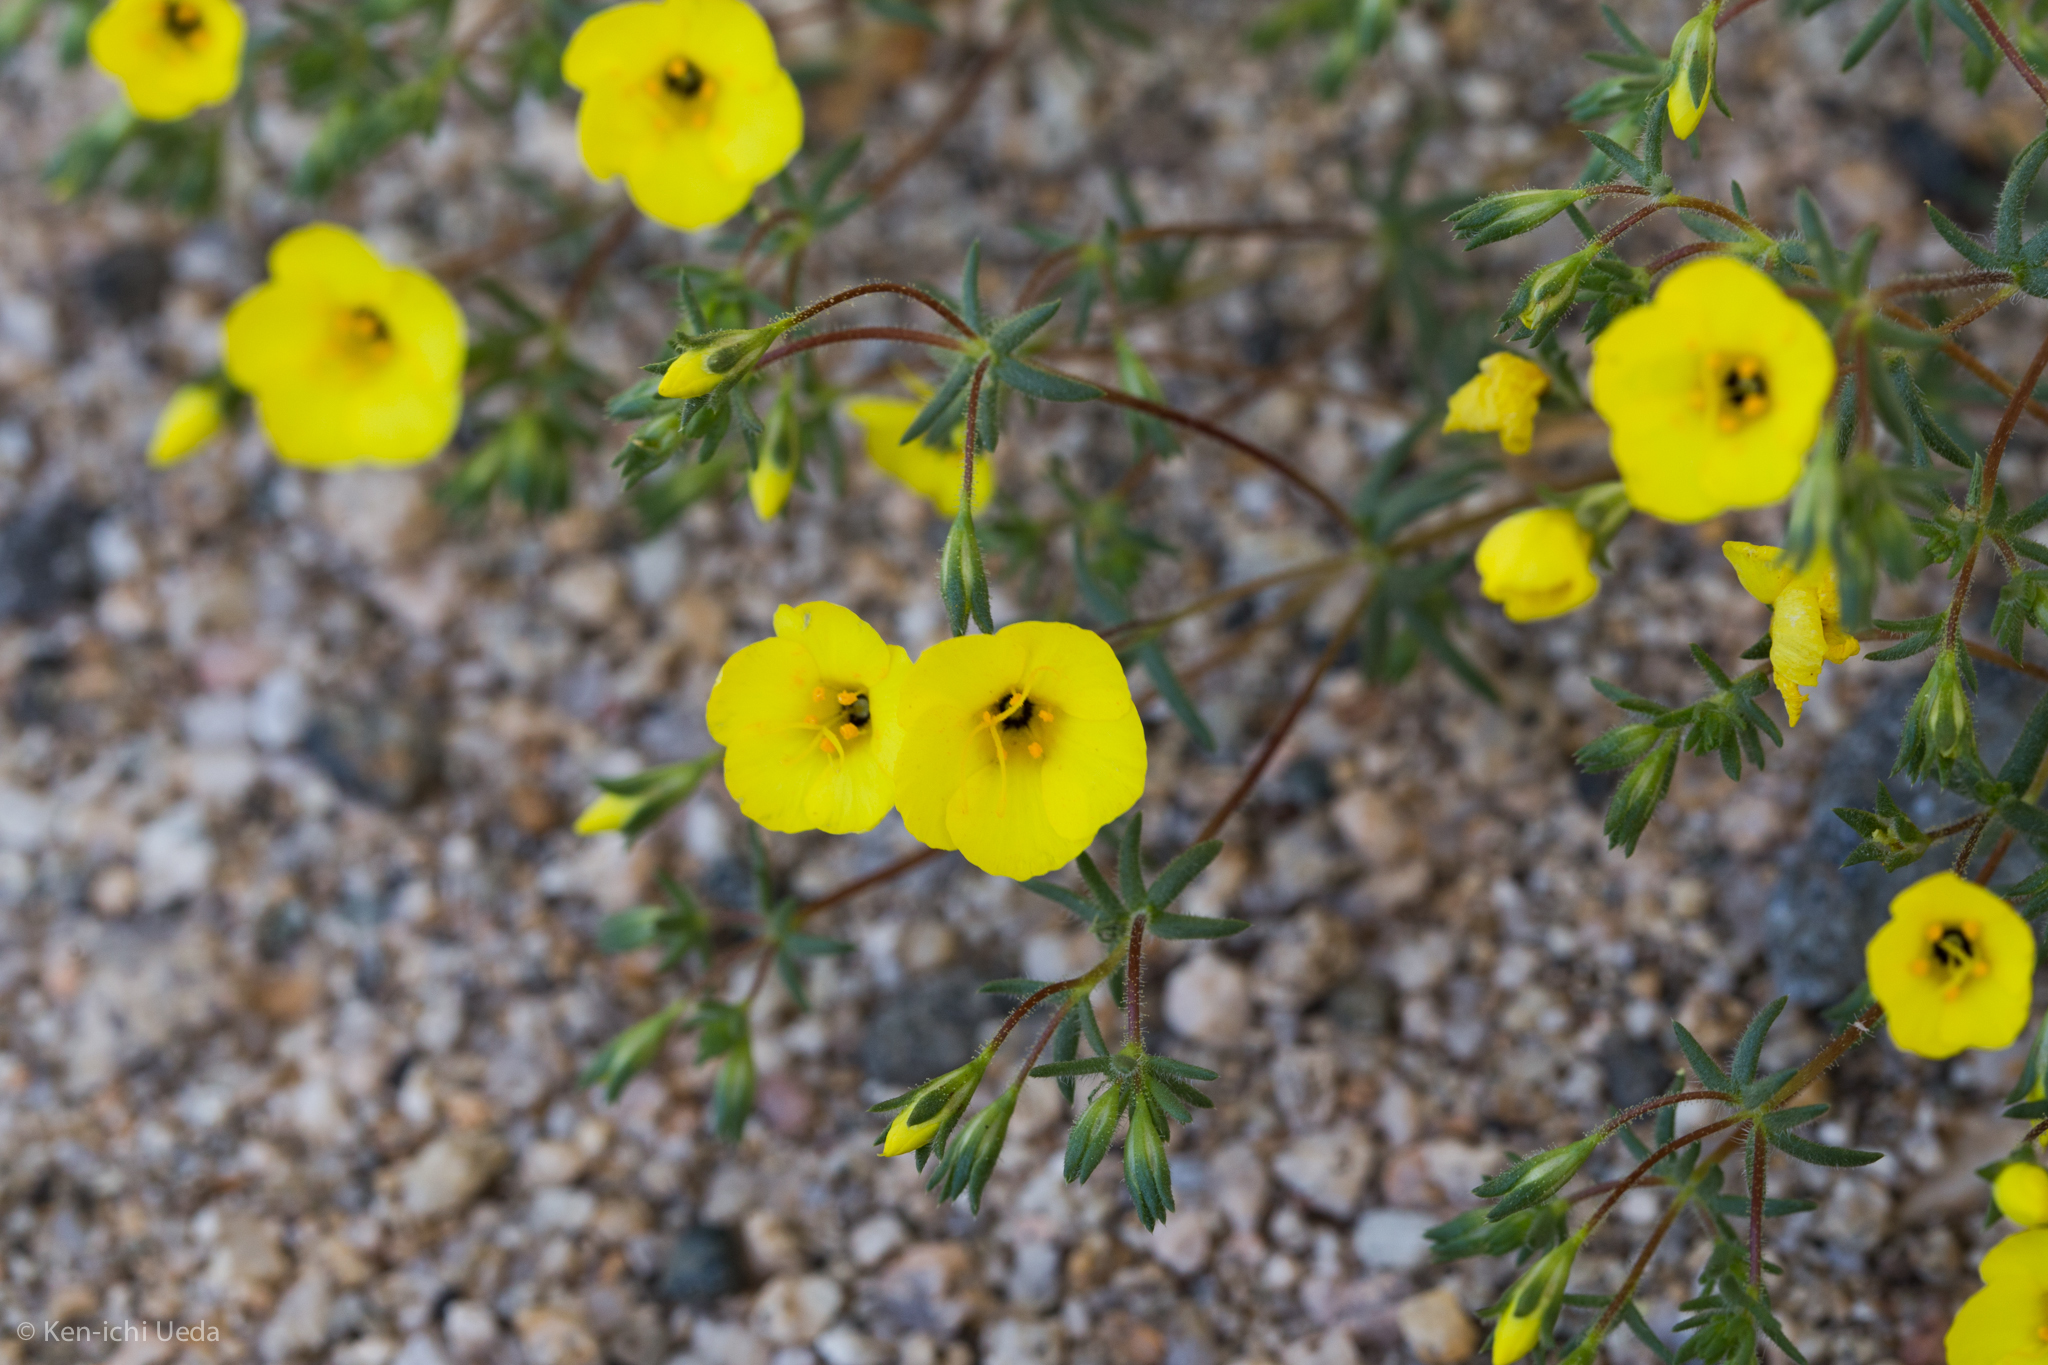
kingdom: Plantae
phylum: Tracheophyta
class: Magnoliopsida
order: Ericales
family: Polemoniaceae
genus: Leptosiphon
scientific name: Leptosiphon chrysanthus
